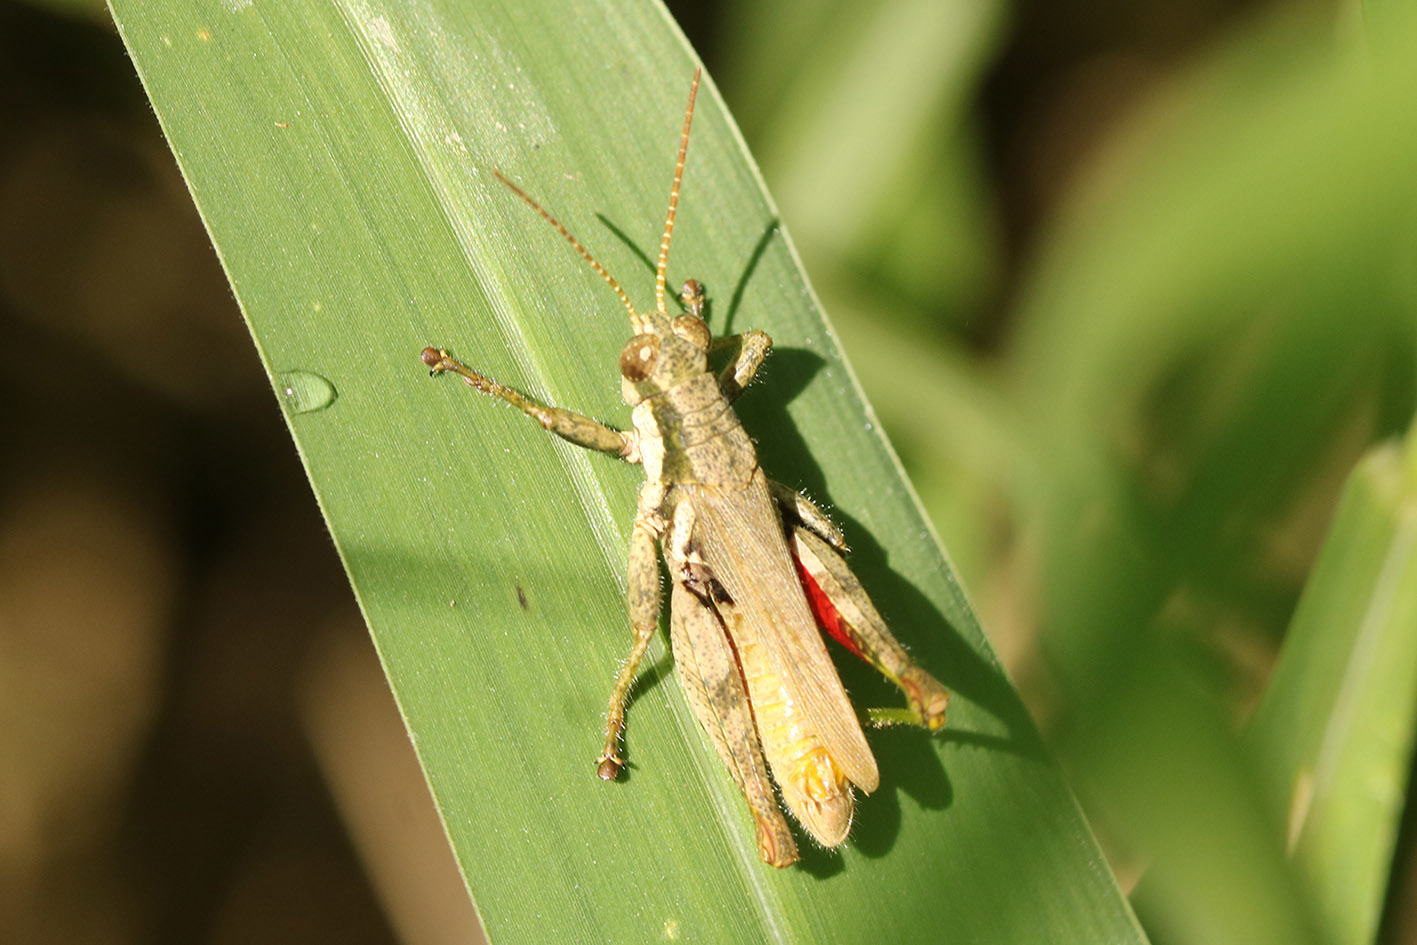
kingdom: Animalia
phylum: Arthropoda
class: Insecta
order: Orthoptera
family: Acrididae
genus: Ronderosia
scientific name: Ronderosia bergii
